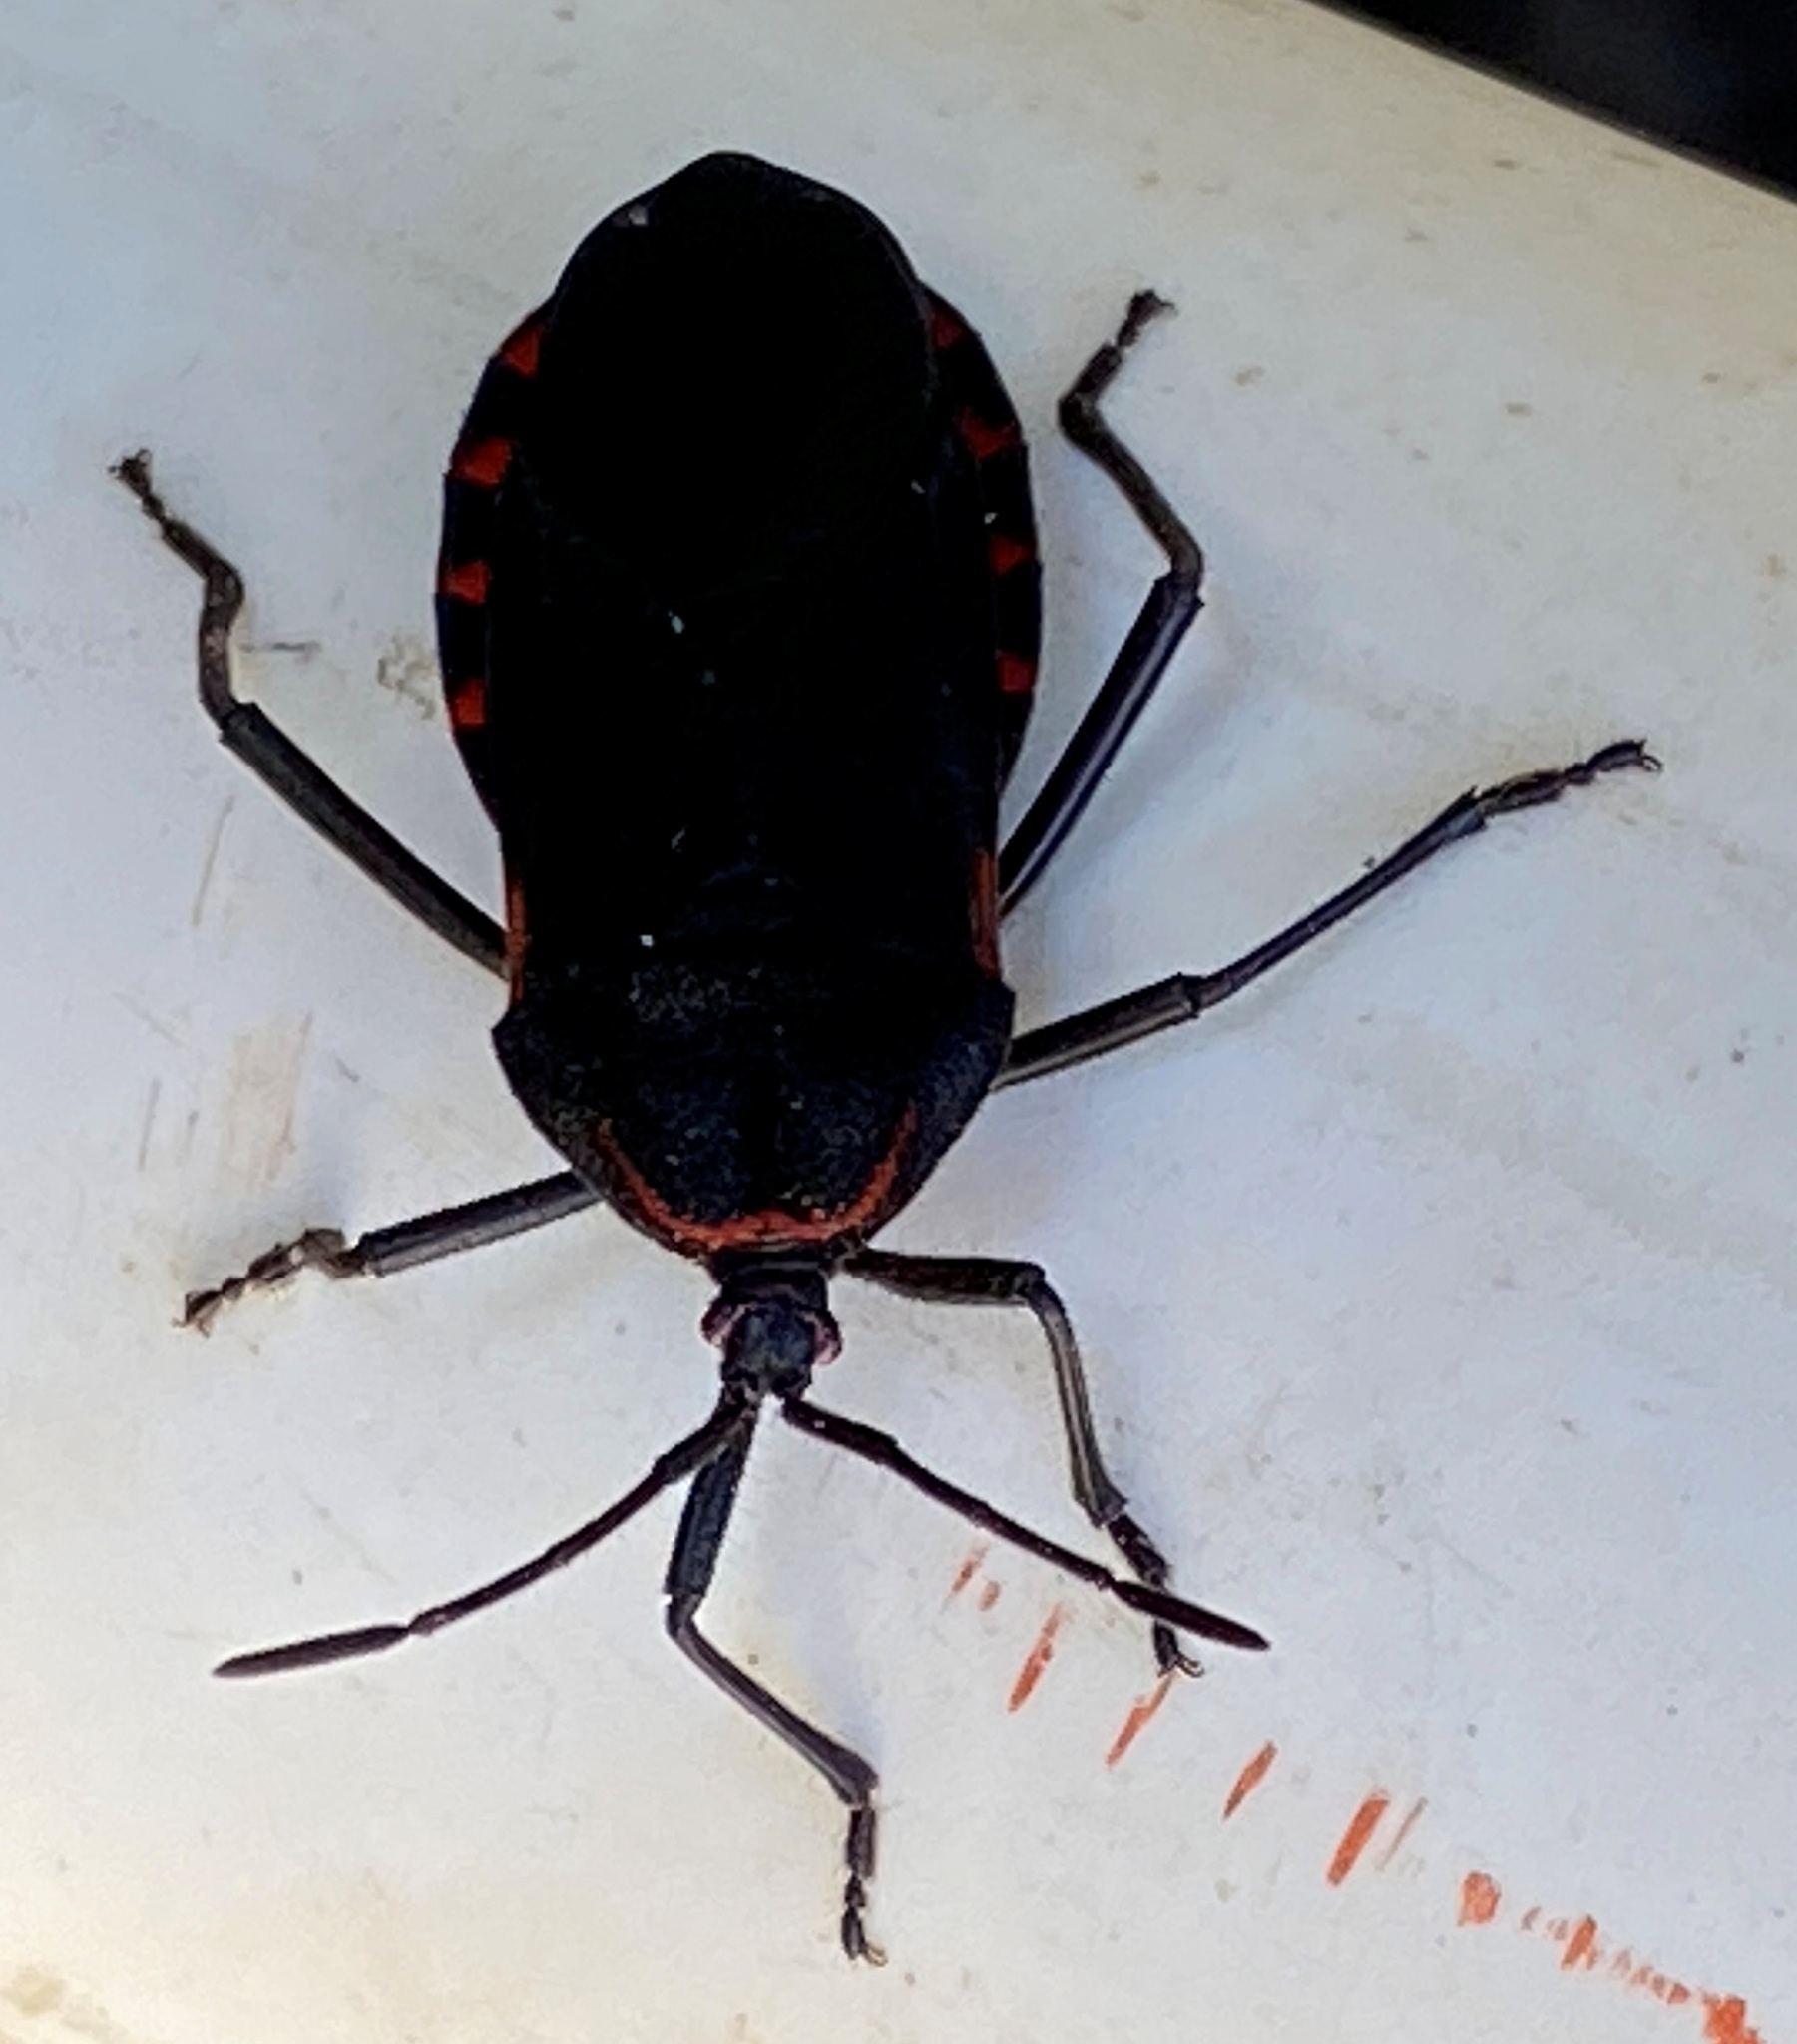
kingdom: Animalia
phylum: Arthropoda
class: Insecta
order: Hemiptera
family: Coreidae
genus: Sephina
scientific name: Sephina subulata
